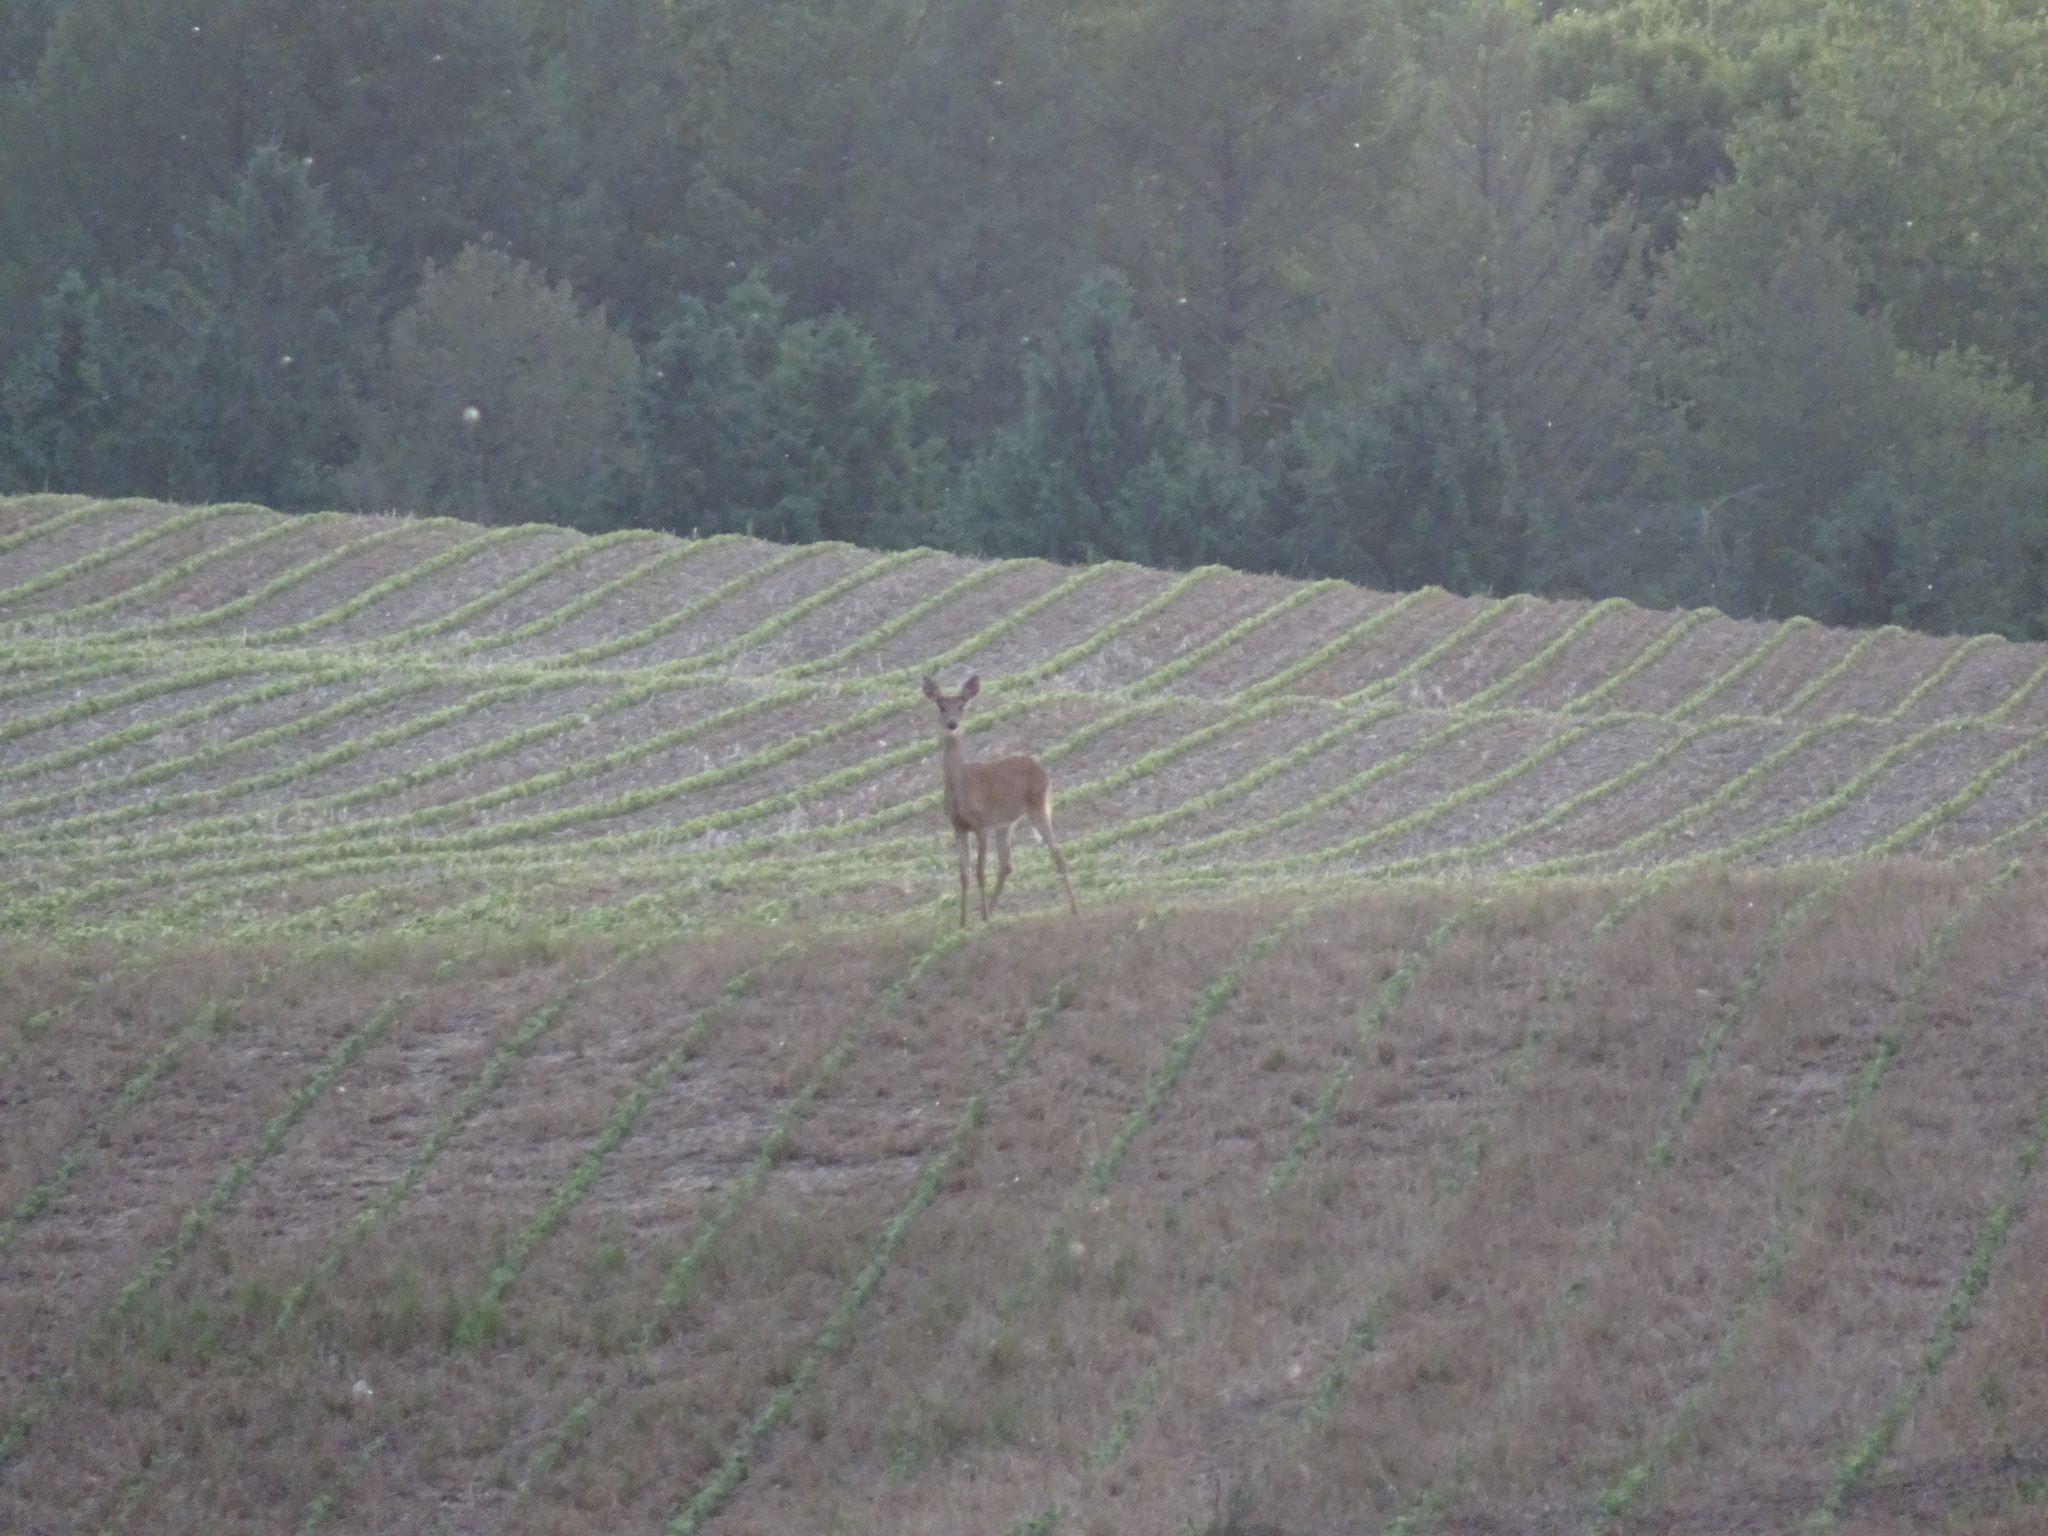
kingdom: Animalia
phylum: Chordata
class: Mammalia
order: Artiodactyla
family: Cervidae
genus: Odocoileus
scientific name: Odocoileus virginianus
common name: White-tailed deer
